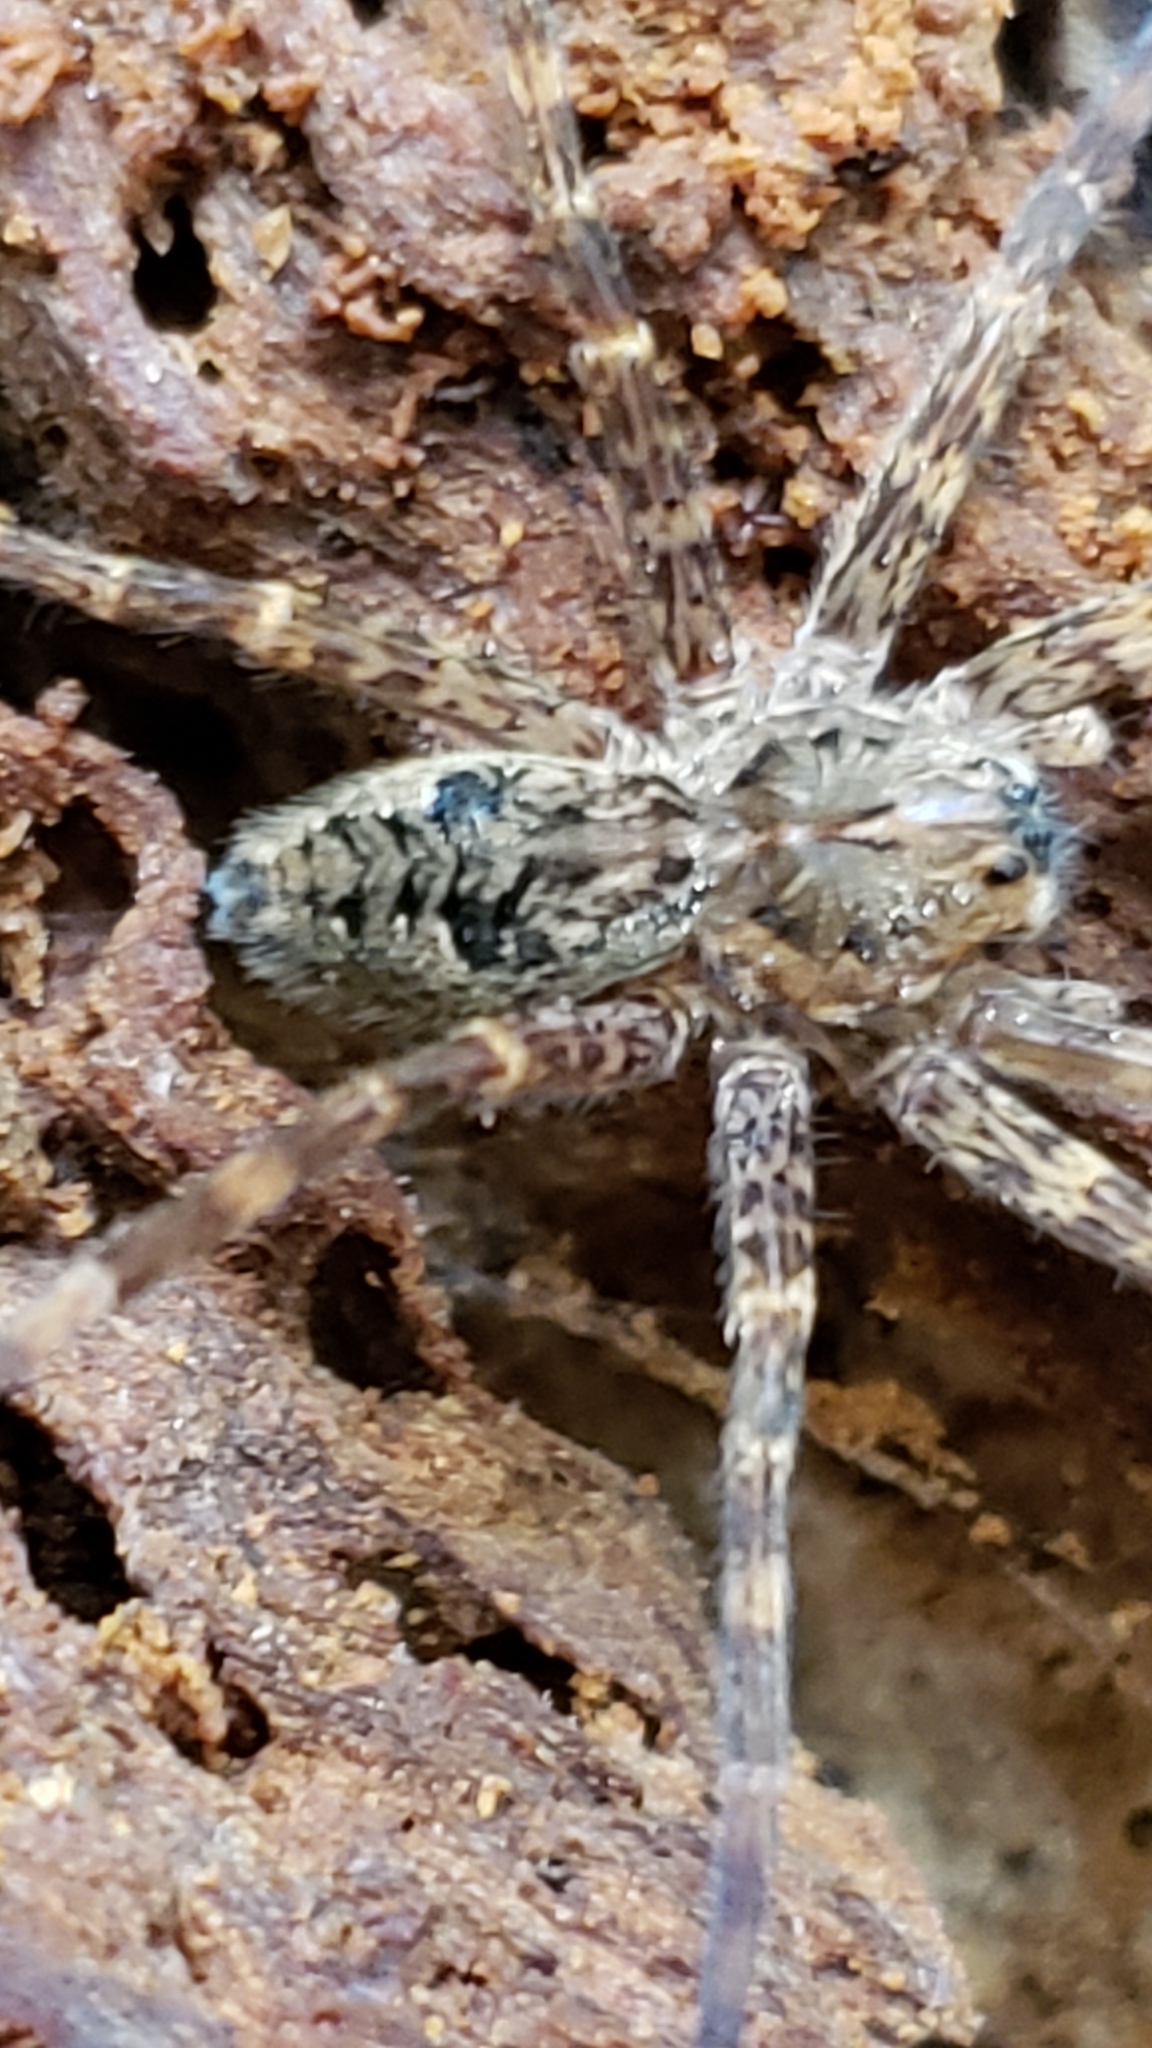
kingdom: Animalia
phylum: Arthropoda
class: Arachnida
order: Araneae
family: Pisauridae
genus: Dolomedes
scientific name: Dolomedes tenebrosus
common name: Dark fishing spider
